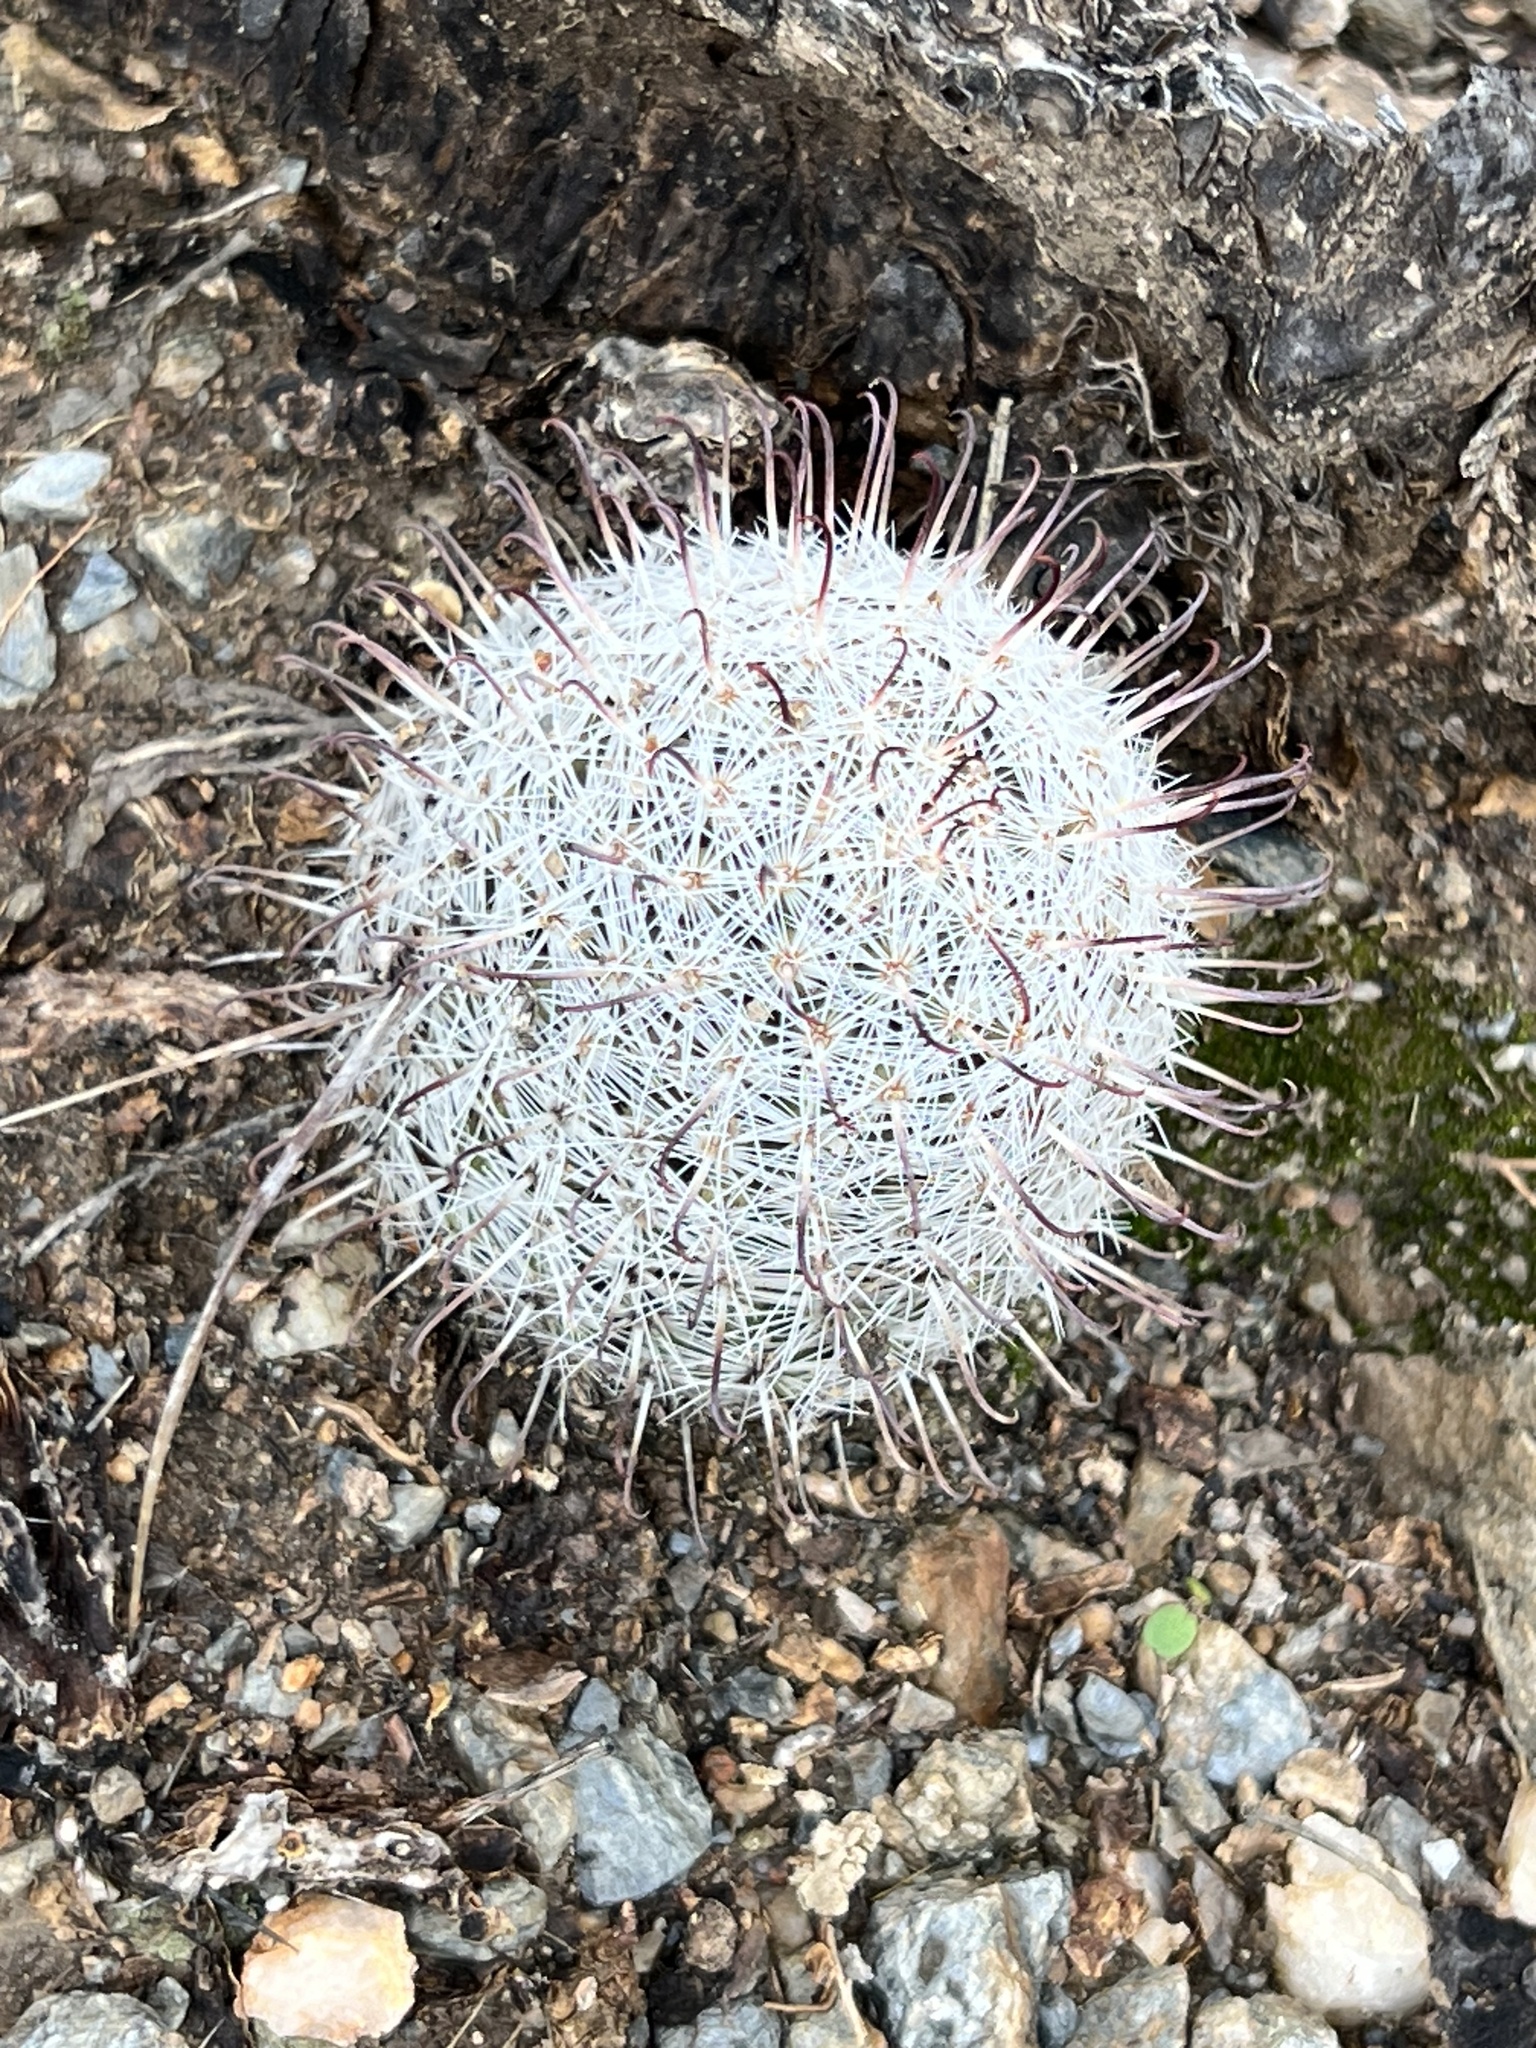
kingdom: Plantae
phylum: Tracheophyta
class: Magnoliopsida
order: Caryophyllales
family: Cactaceae
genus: Cochemiea
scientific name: Cochemiea grahamii
